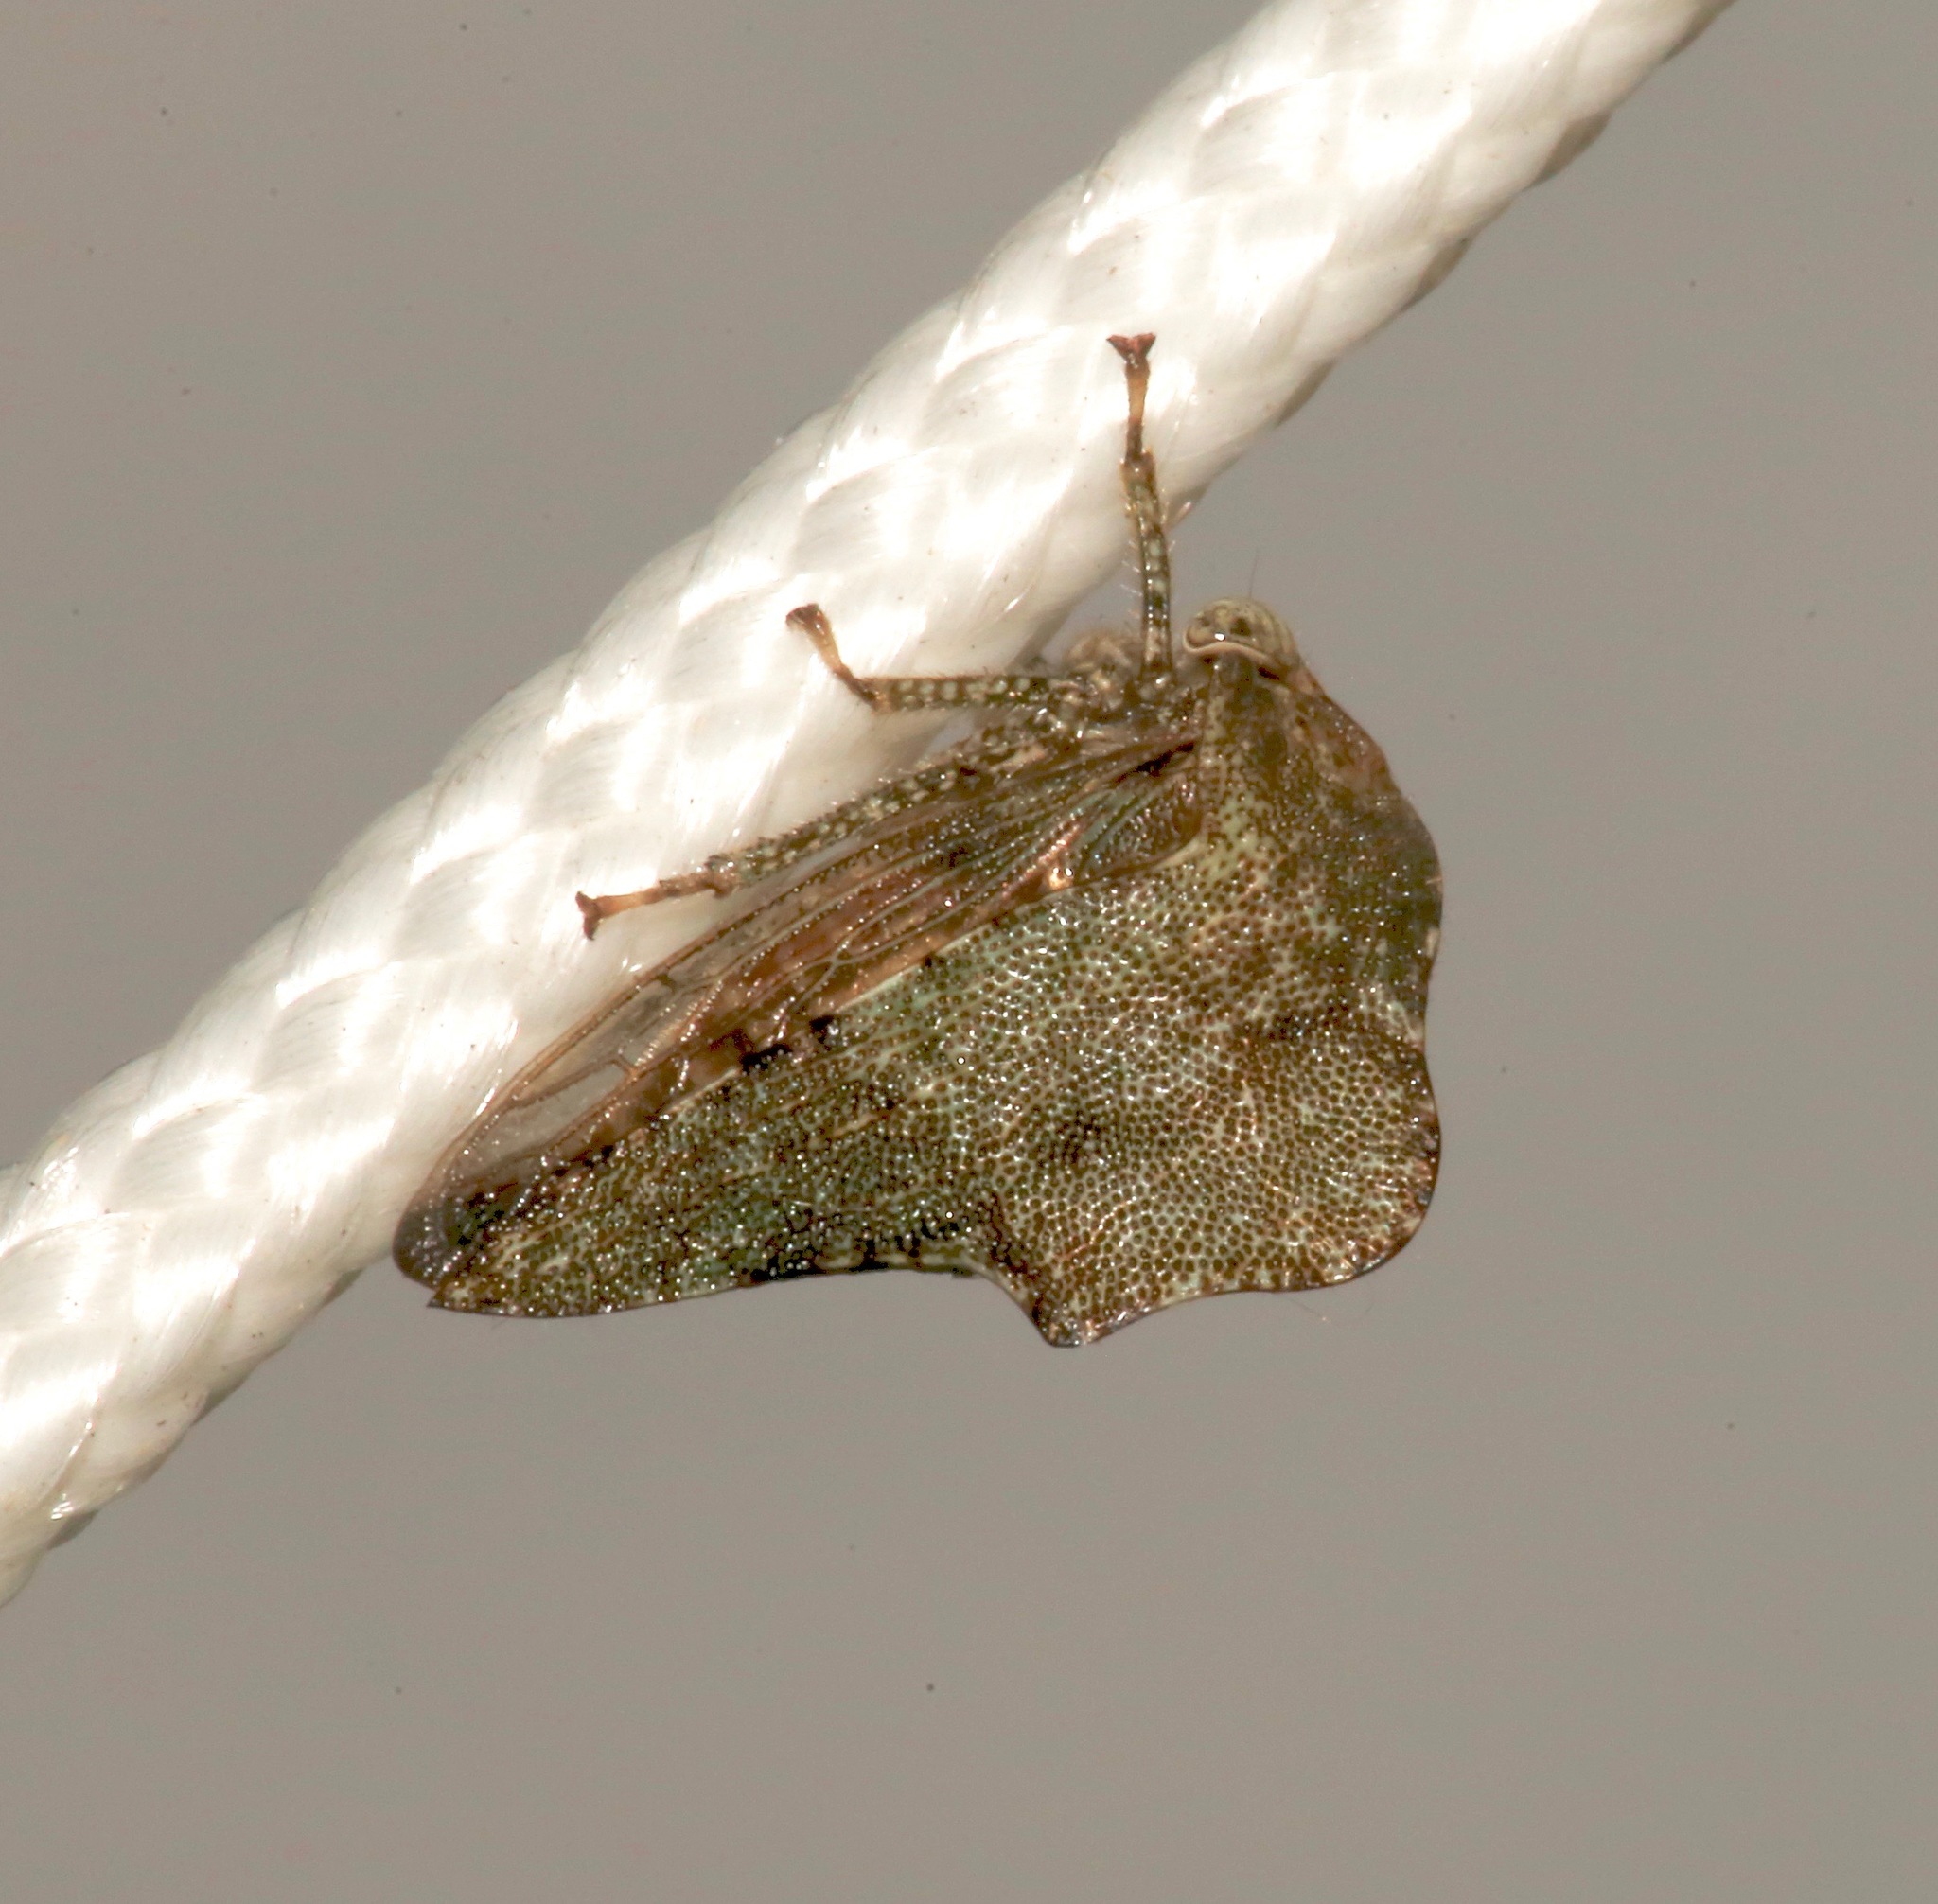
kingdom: Animalia
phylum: Arthropoda
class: Insecta
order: Hemiptera
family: Membracidae
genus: Heliria
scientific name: Heliria cornutula
